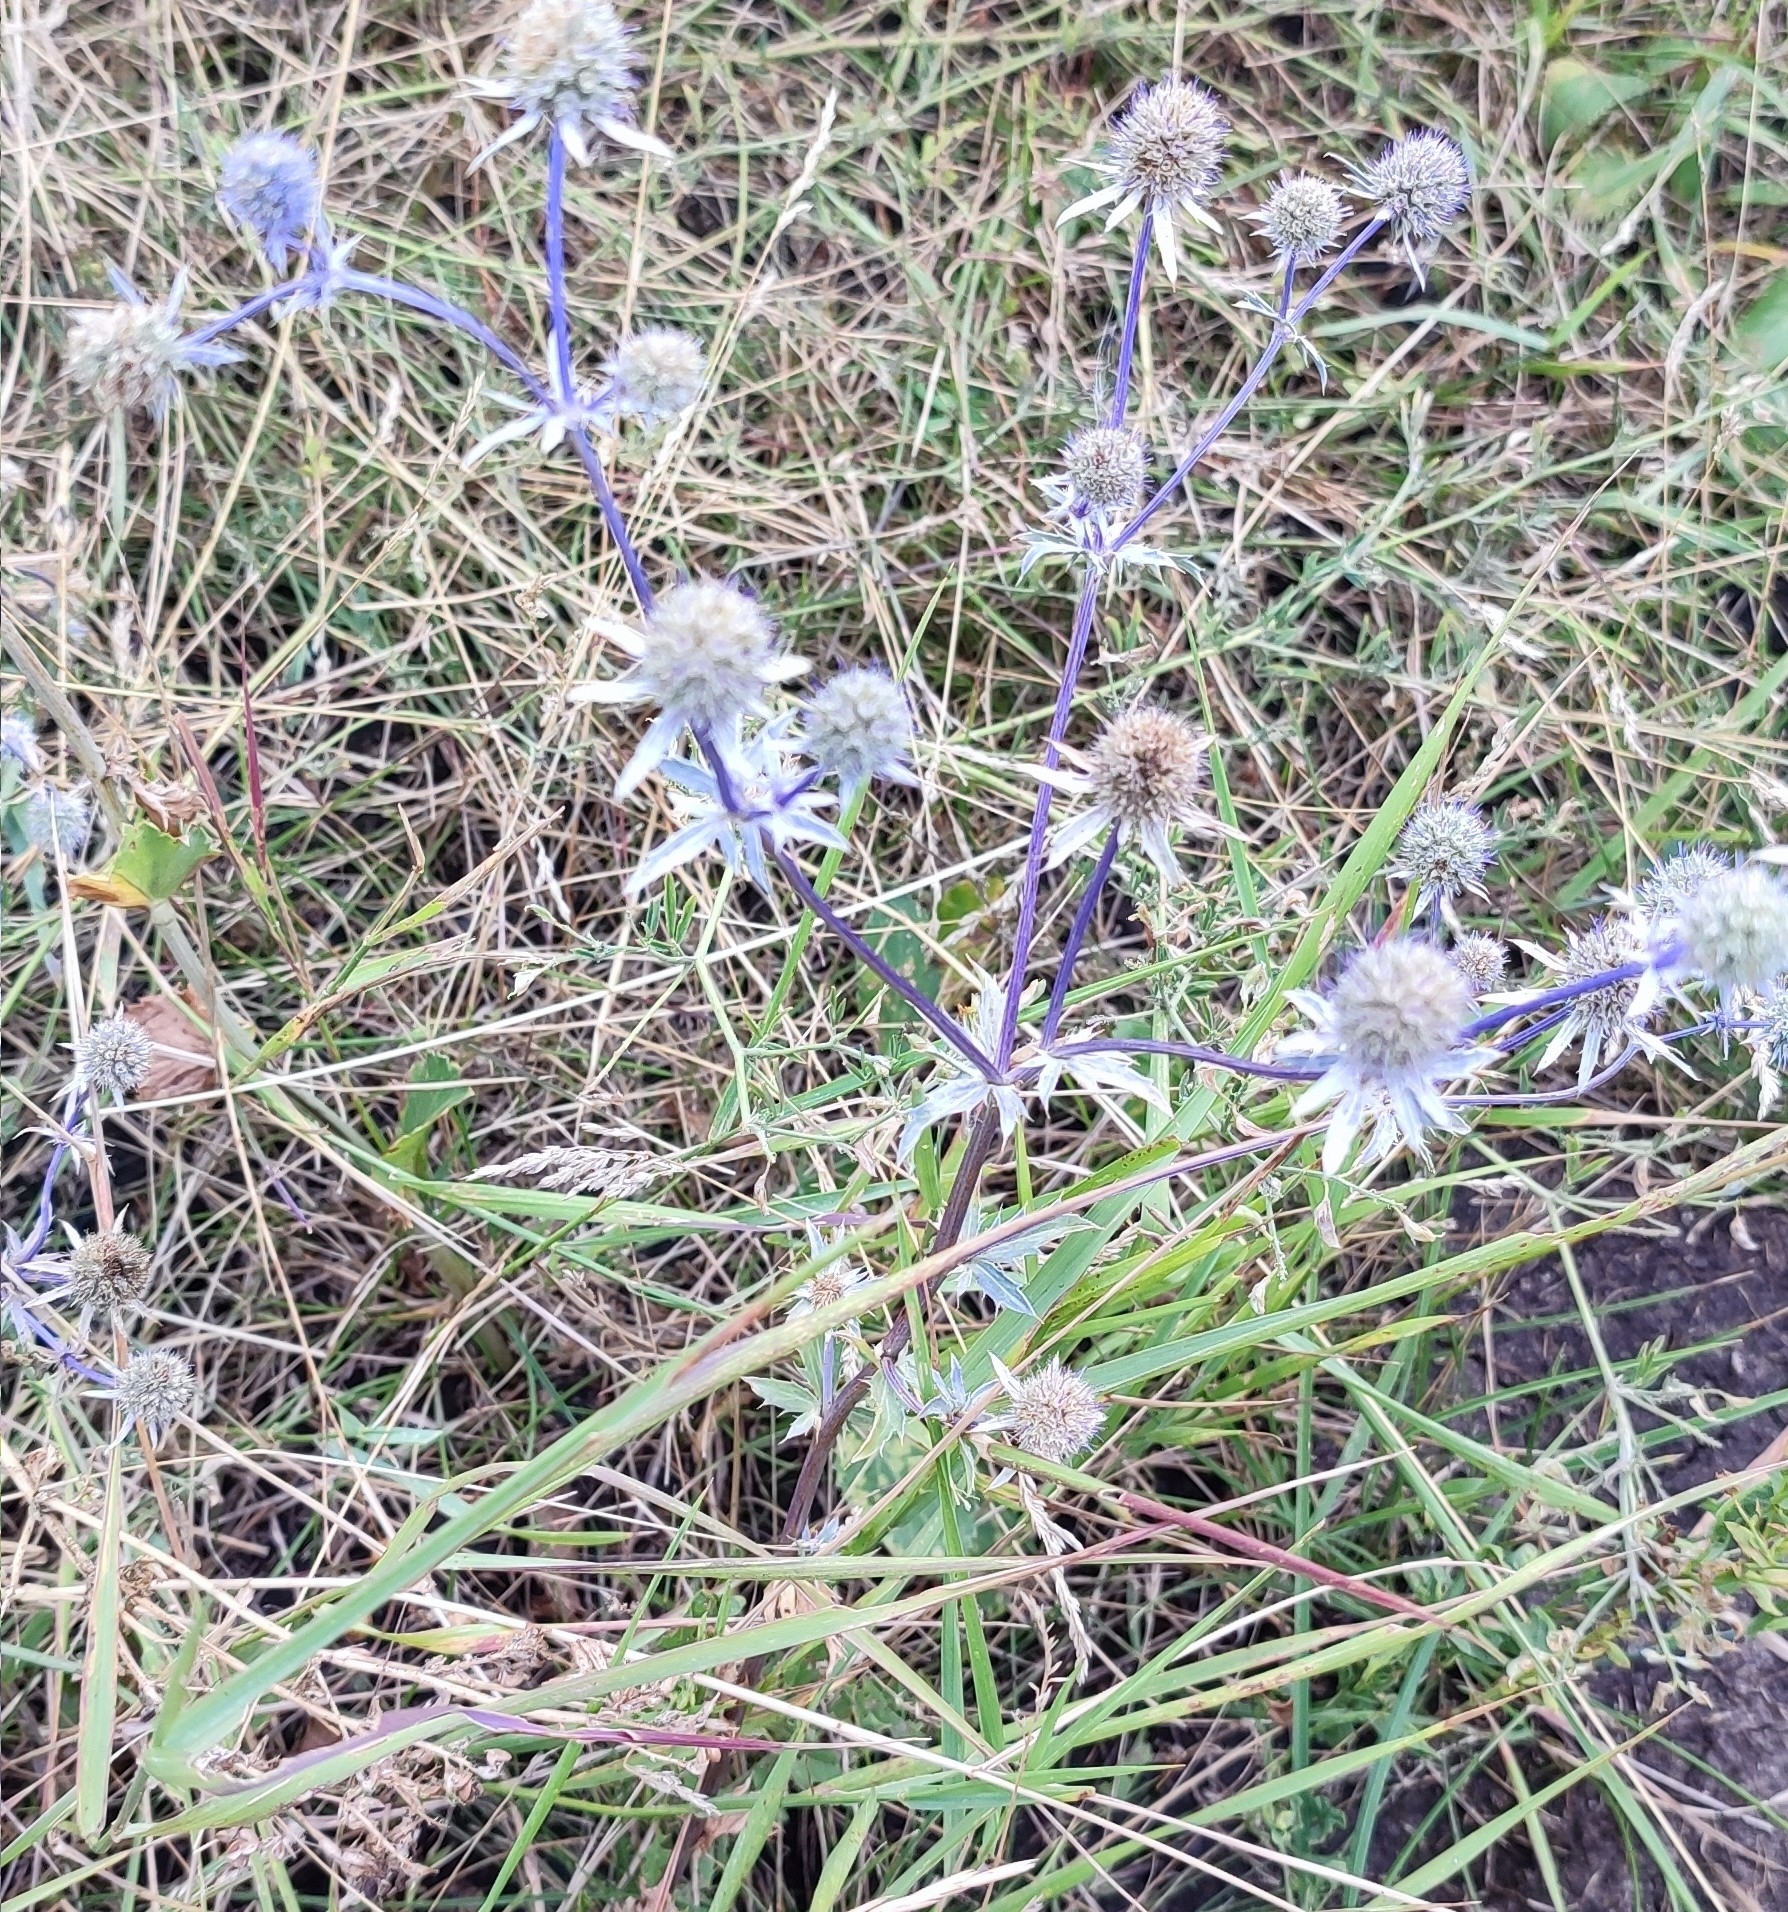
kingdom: Plantae
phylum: Tracheophyta
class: Magnoliopsida
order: Apiales
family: Apiaceae
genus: Eryngium
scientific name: Eryngium planum
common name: Blue eryngo
